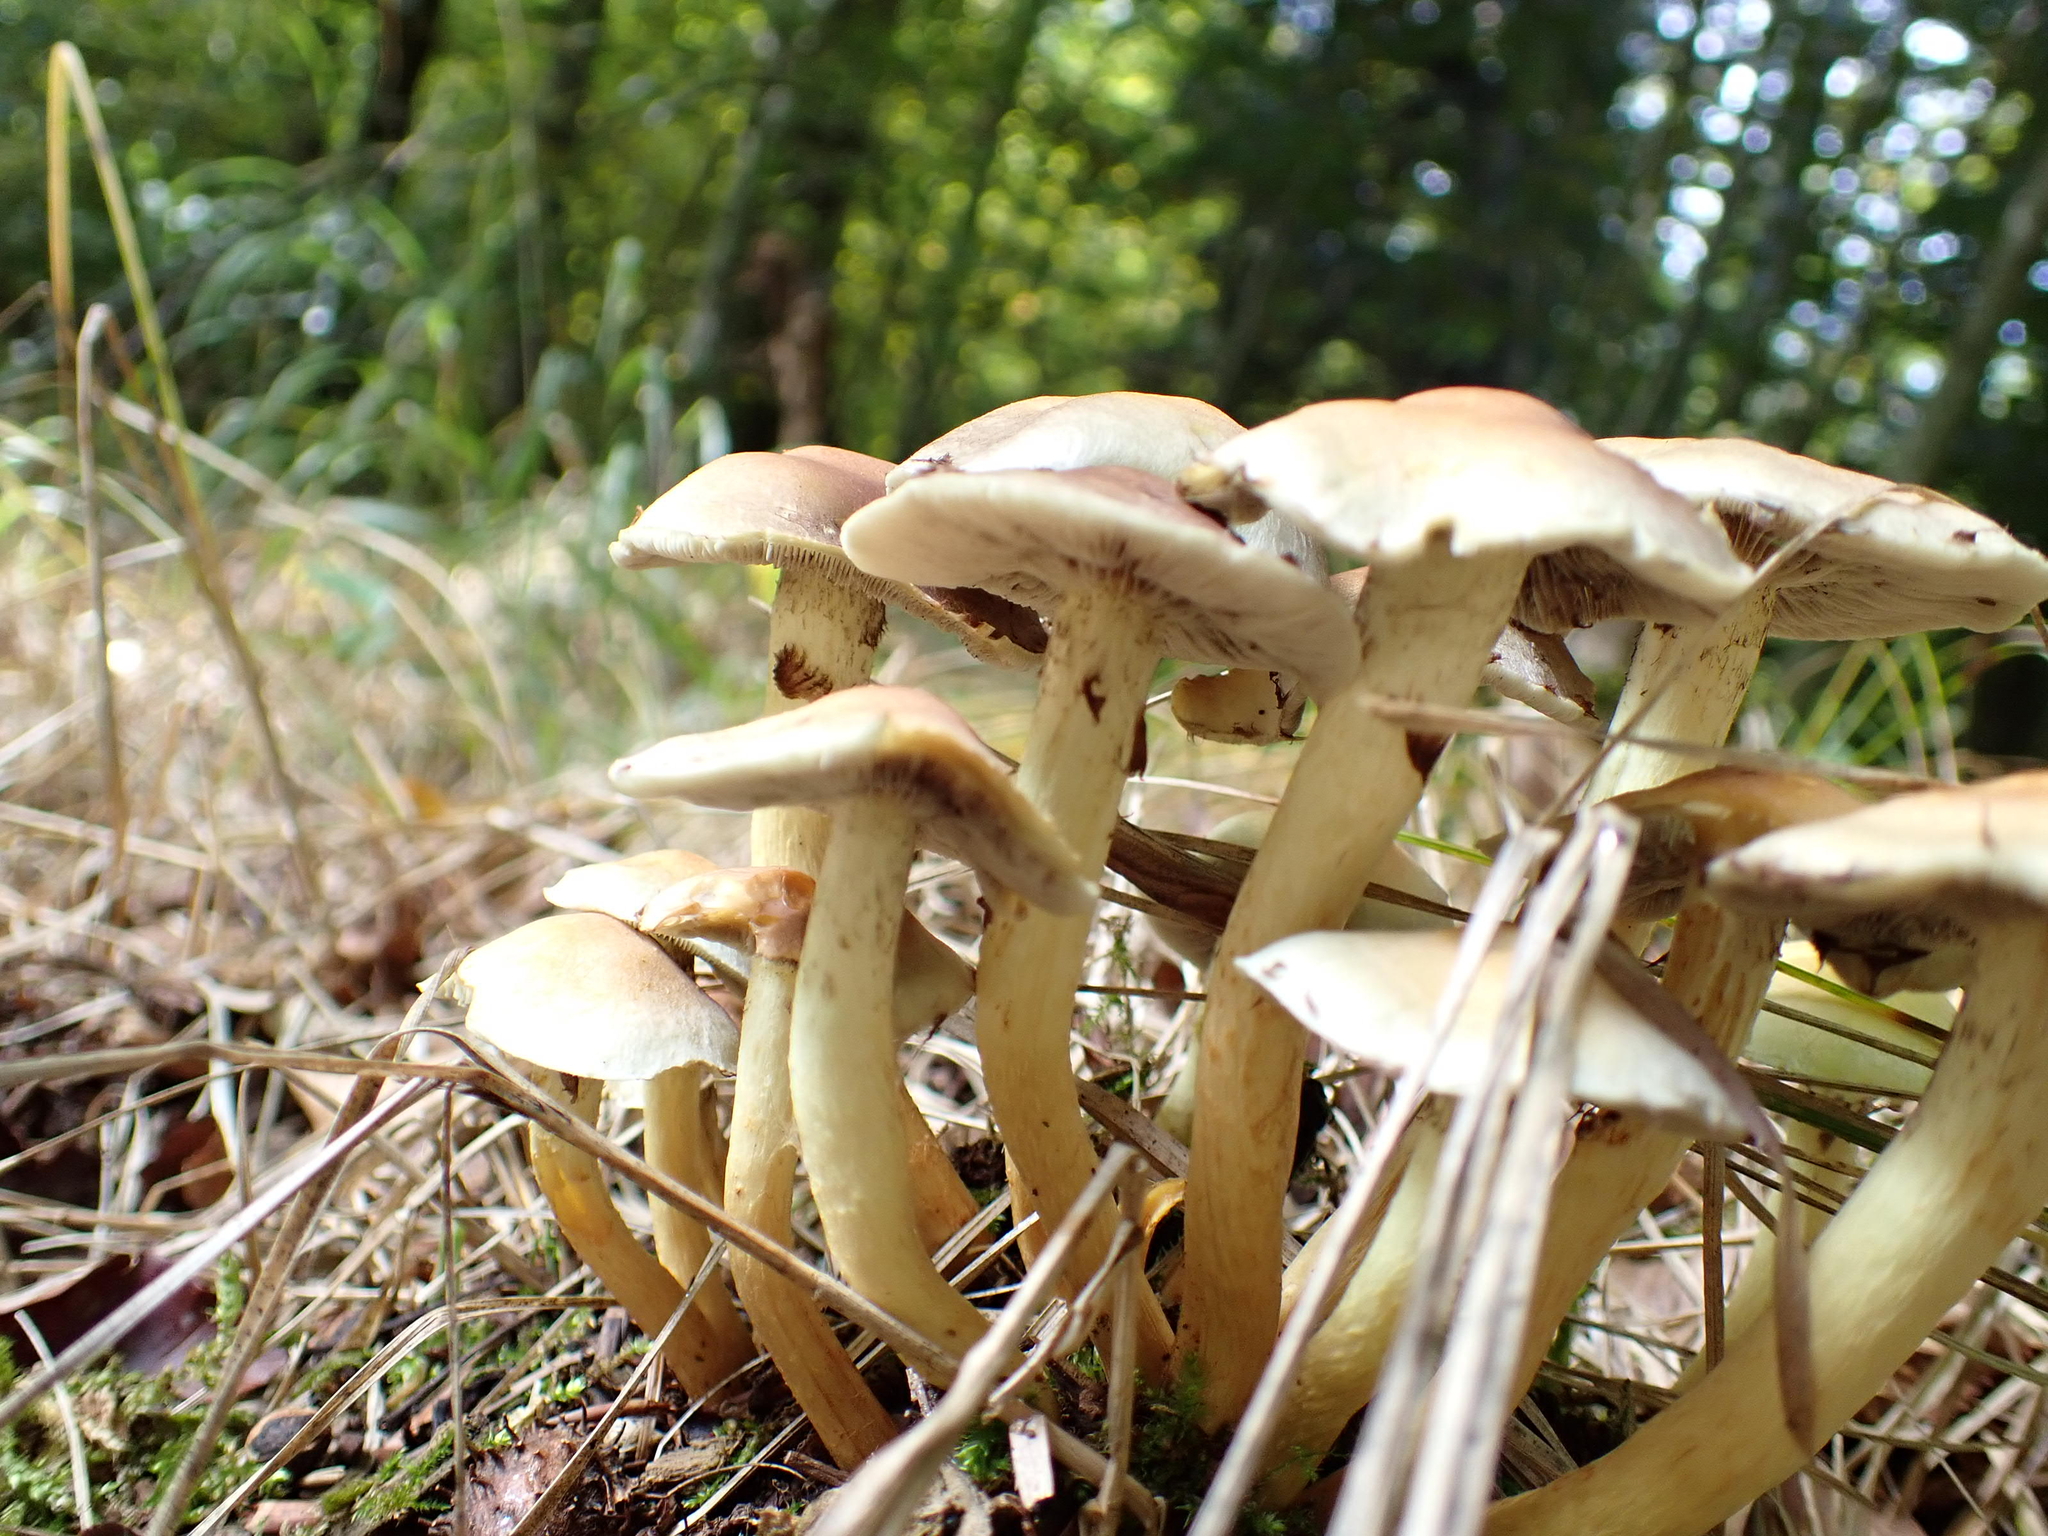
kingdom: Fungi
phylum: Basidiomycota
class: Agaricomycetes
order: Agaricales
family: Strophariaceae
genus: Hypholoma
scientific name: Hypholoma fasciculare
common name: Sulphur tuft
